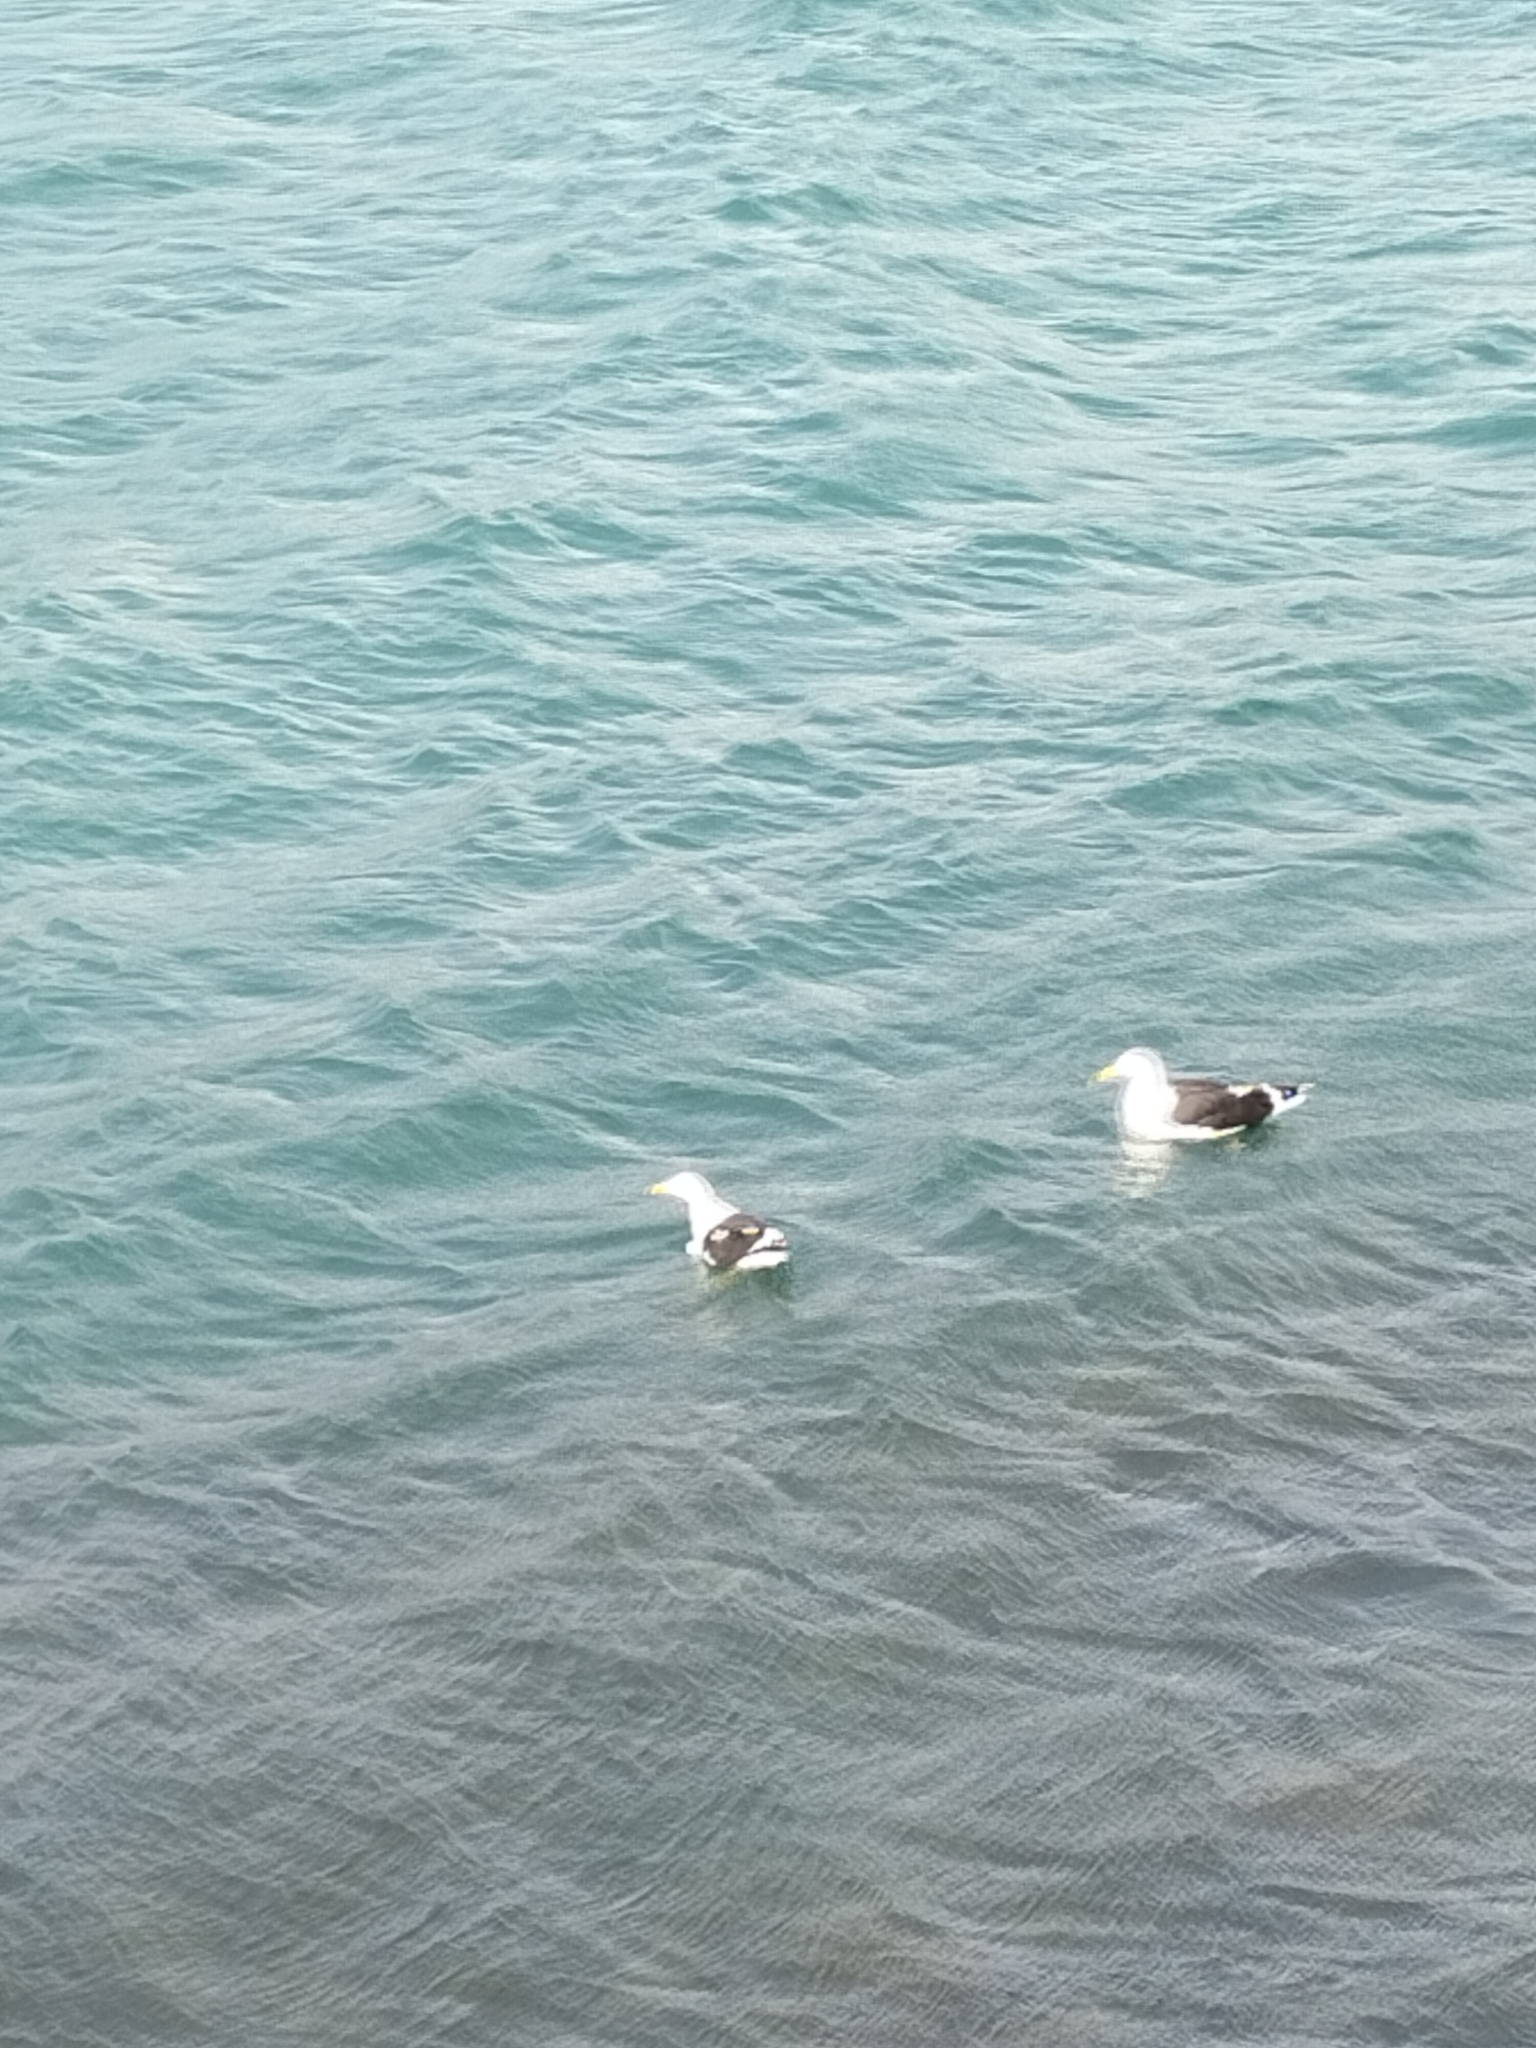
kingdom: Animalia
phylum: Chordata
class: Aves
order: Charadriiformes
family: Laridae
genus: Larus
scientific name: Larus dominicanus
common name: Kelp gull
